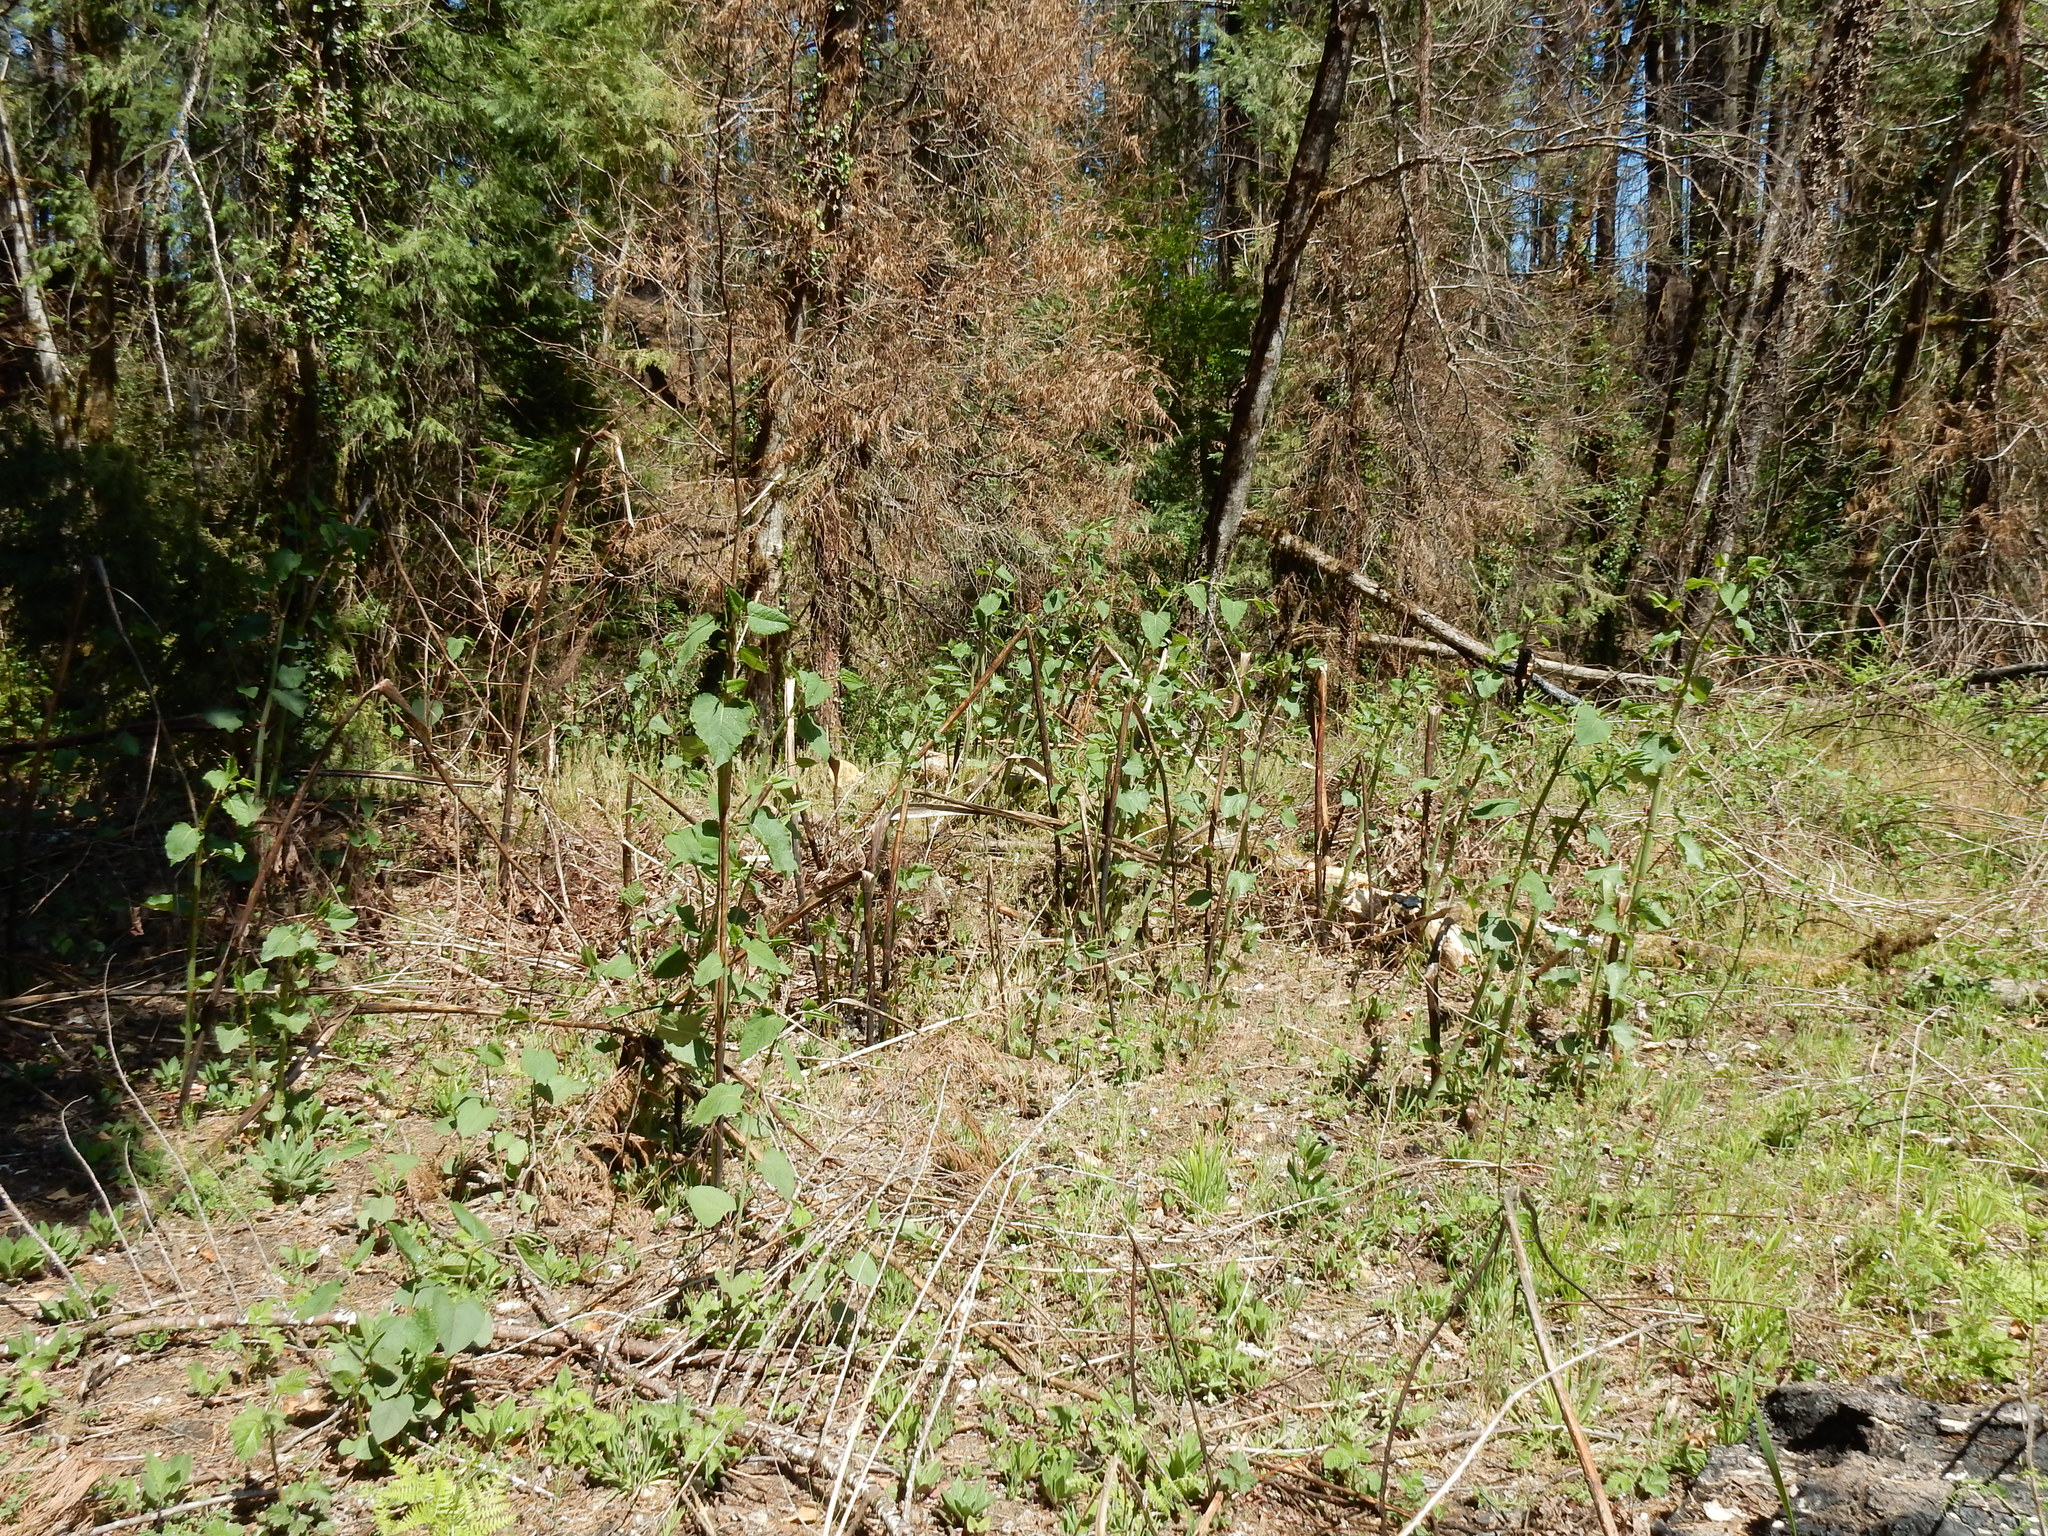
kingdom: Plantae
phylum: Tracheophyta
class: Magnoliopsida
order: Caryophyllales
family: Polygonaceae
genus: Reynoutria
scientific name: Reynoutria bohemica
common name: Bohemian knotweed
